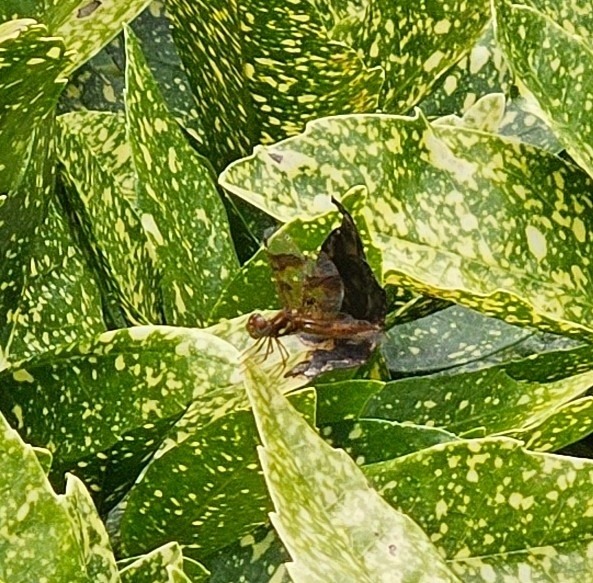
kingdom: Animalia
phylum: Arthropoda
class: Insecta
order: Odonata
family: Libellulidae
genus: Perithemis
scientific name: Perithemis tenera
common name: Eastern amberwing
